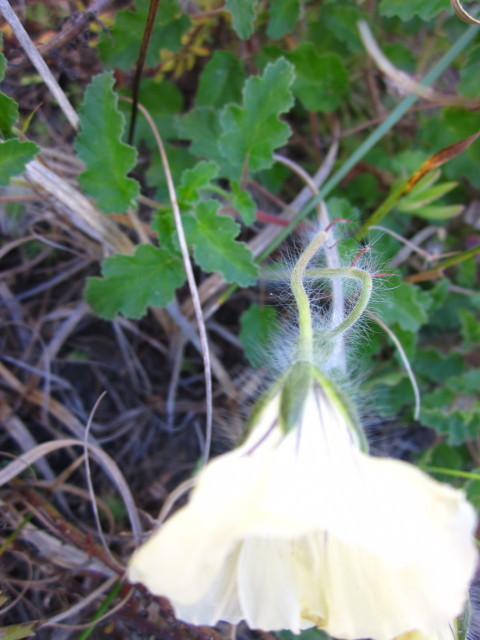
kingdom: Plantae
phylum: Tracheophyta
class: Magnoliopsida
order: Geraniales
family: Geraniaceae
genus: Monsonia
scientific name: Monsonia emarginata
